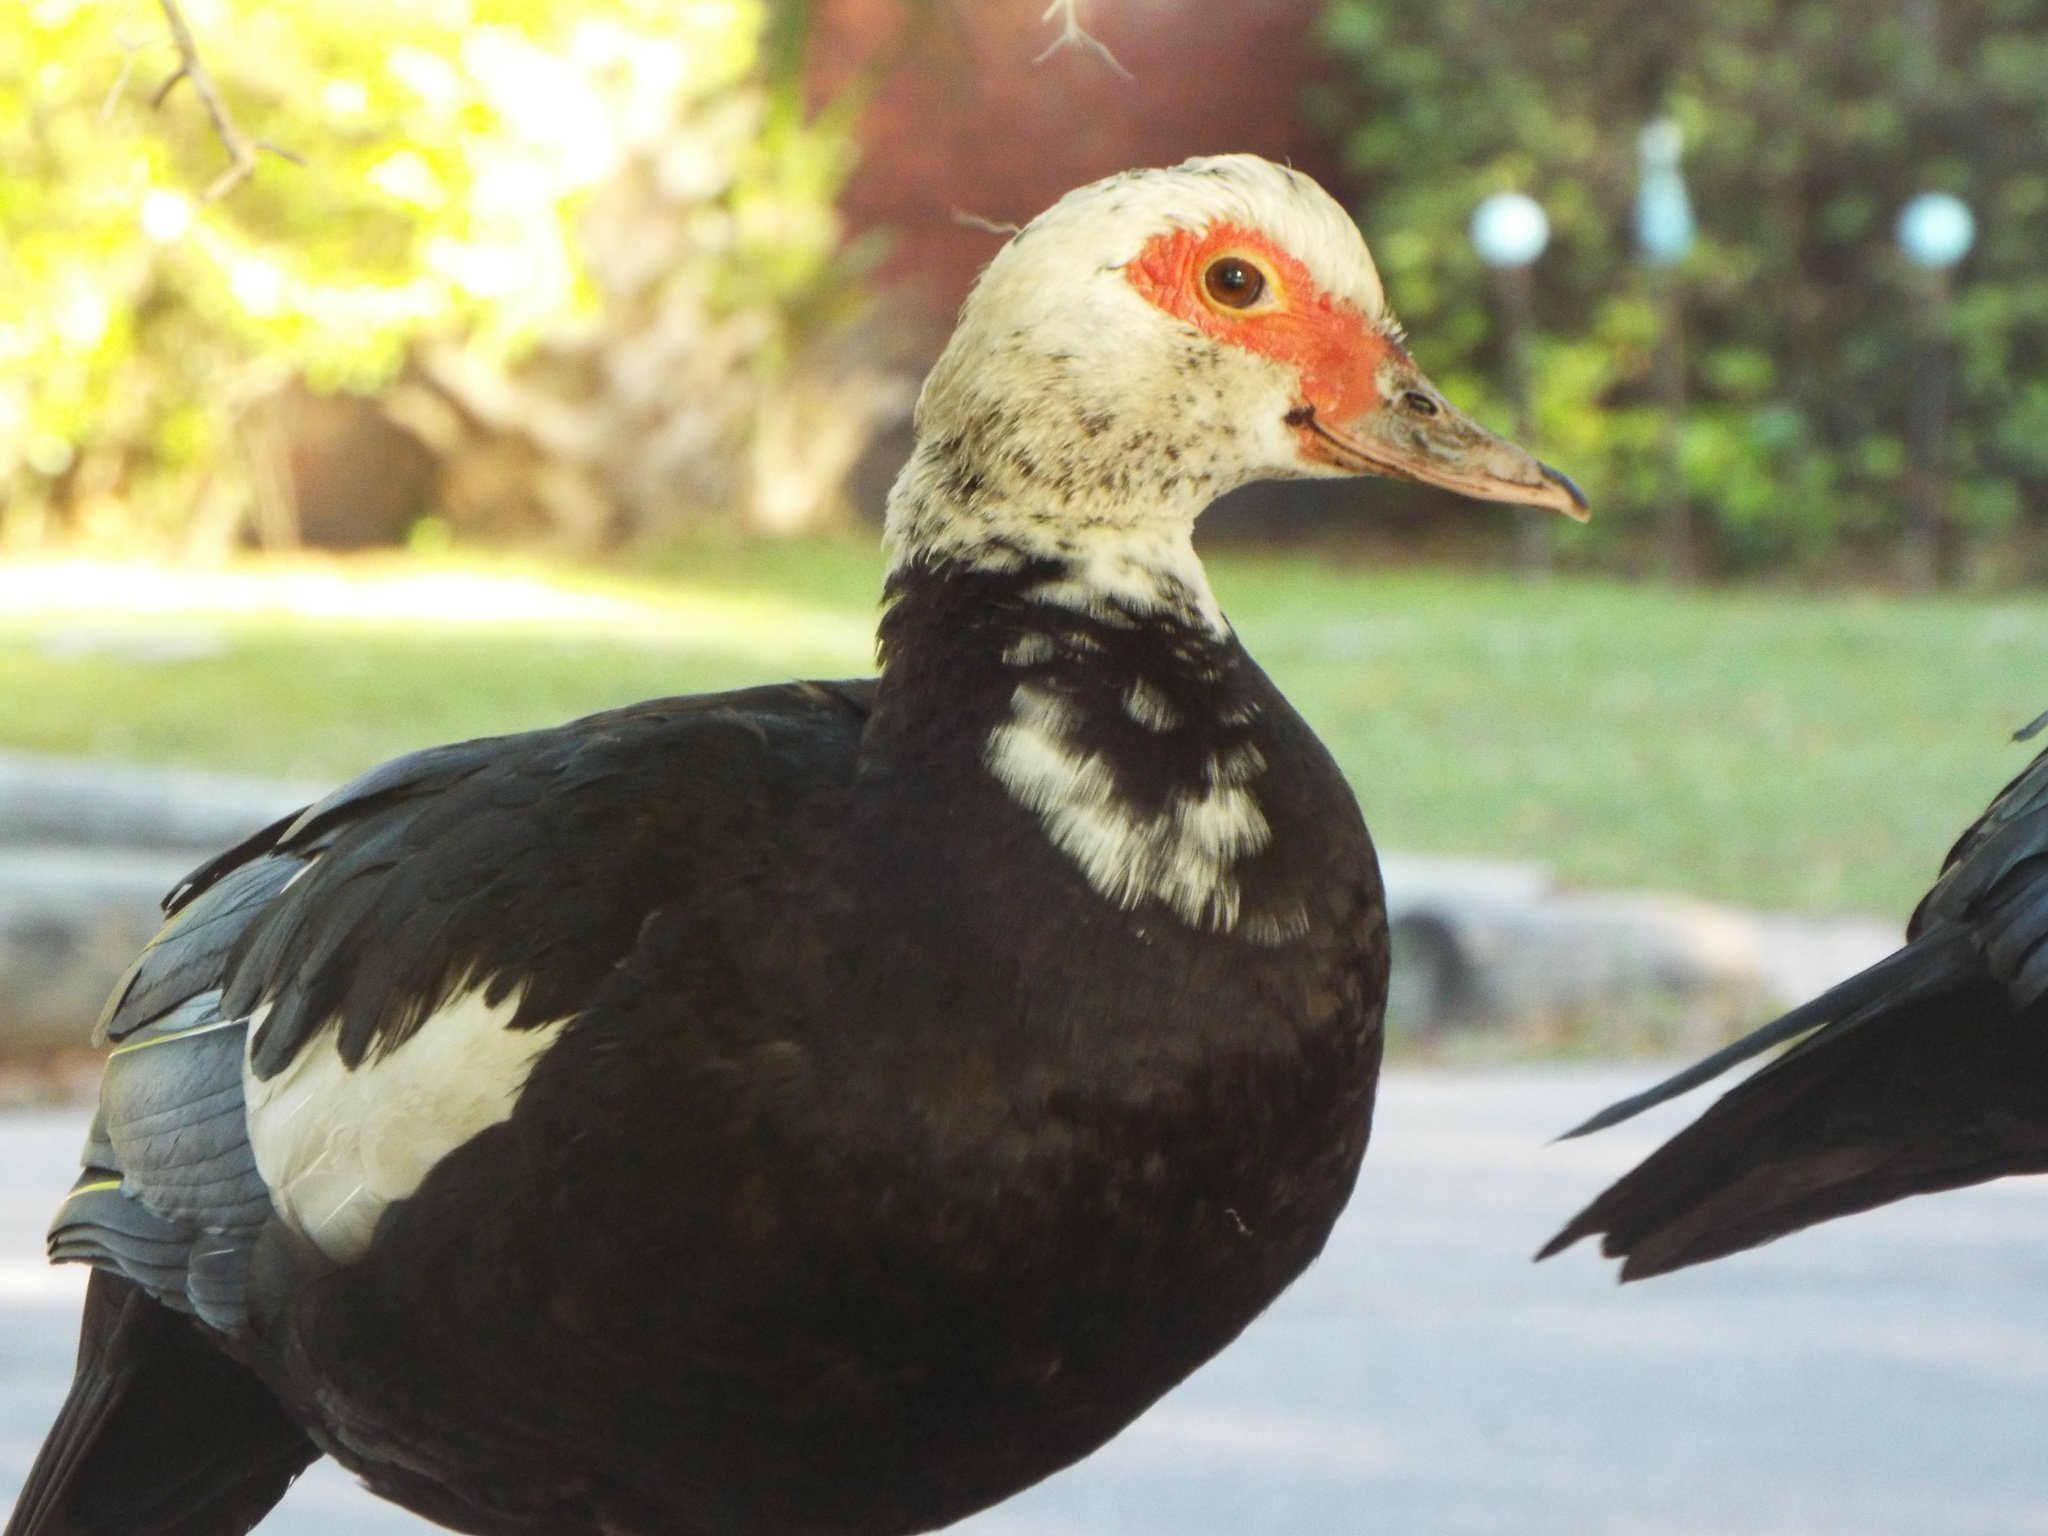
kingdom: Animalia
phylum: Chordata
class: Aves
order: Anseriformes
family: Anatidae
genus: Cairina
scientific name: Cairina moschata
